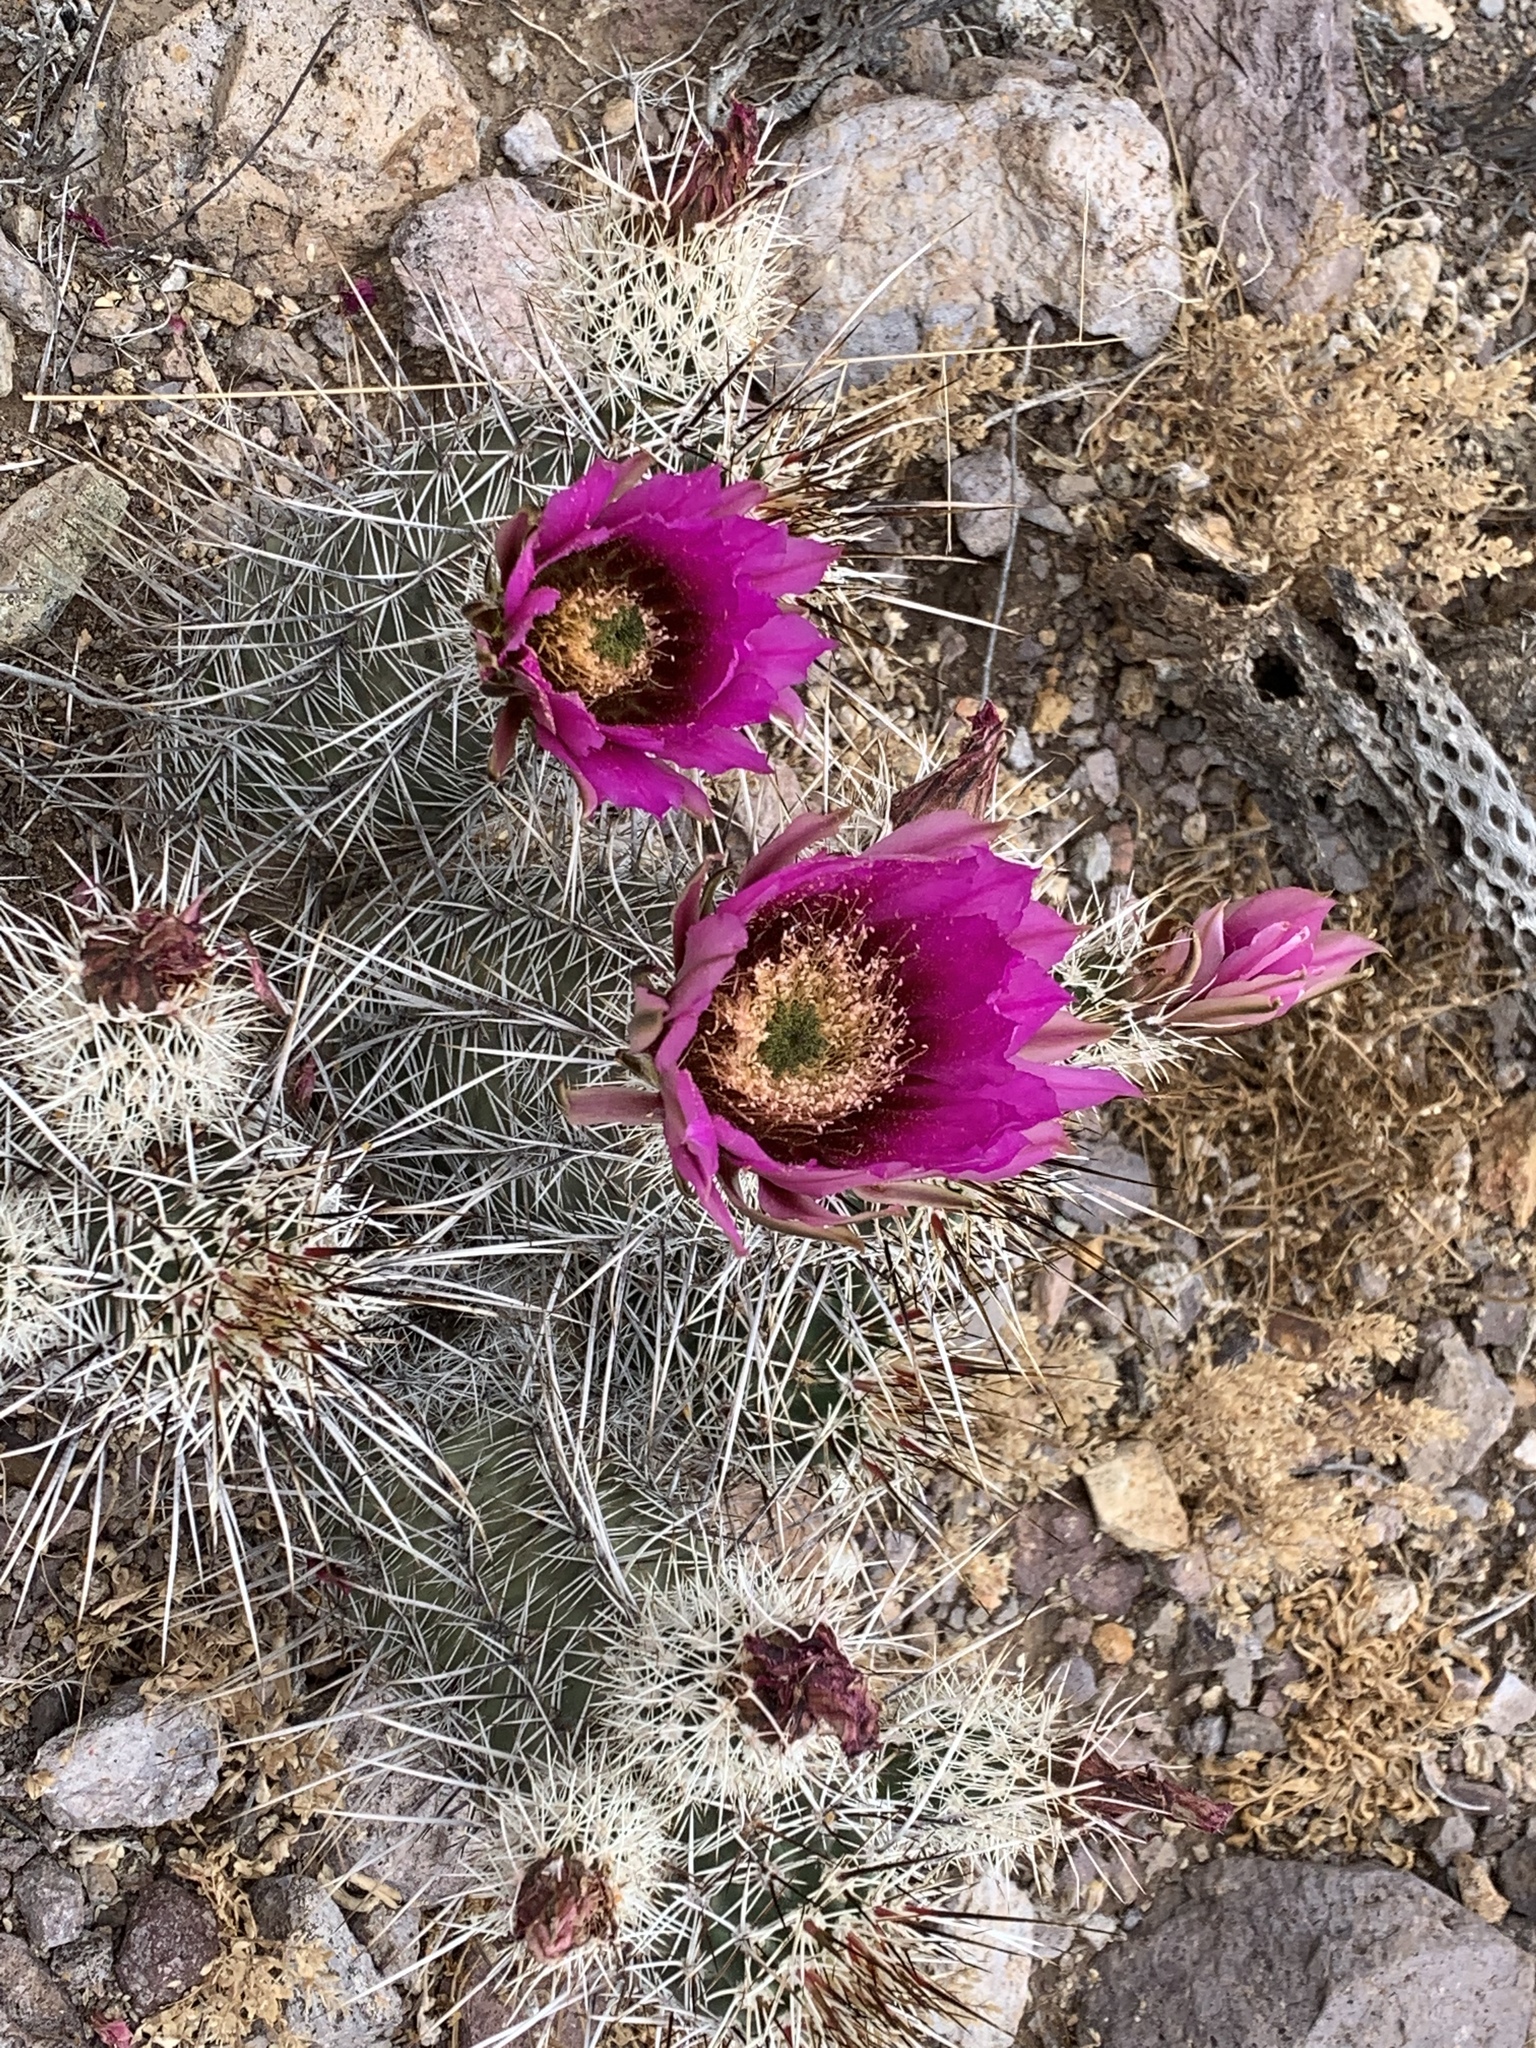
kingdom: Plantae
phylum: Tracheophyta
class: Magnoliopsida
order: Caryophyllales
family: Cactaceae
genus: Echinocereus
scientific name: Echinocereus fendleri
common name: Fendler's hedgehog cactus
